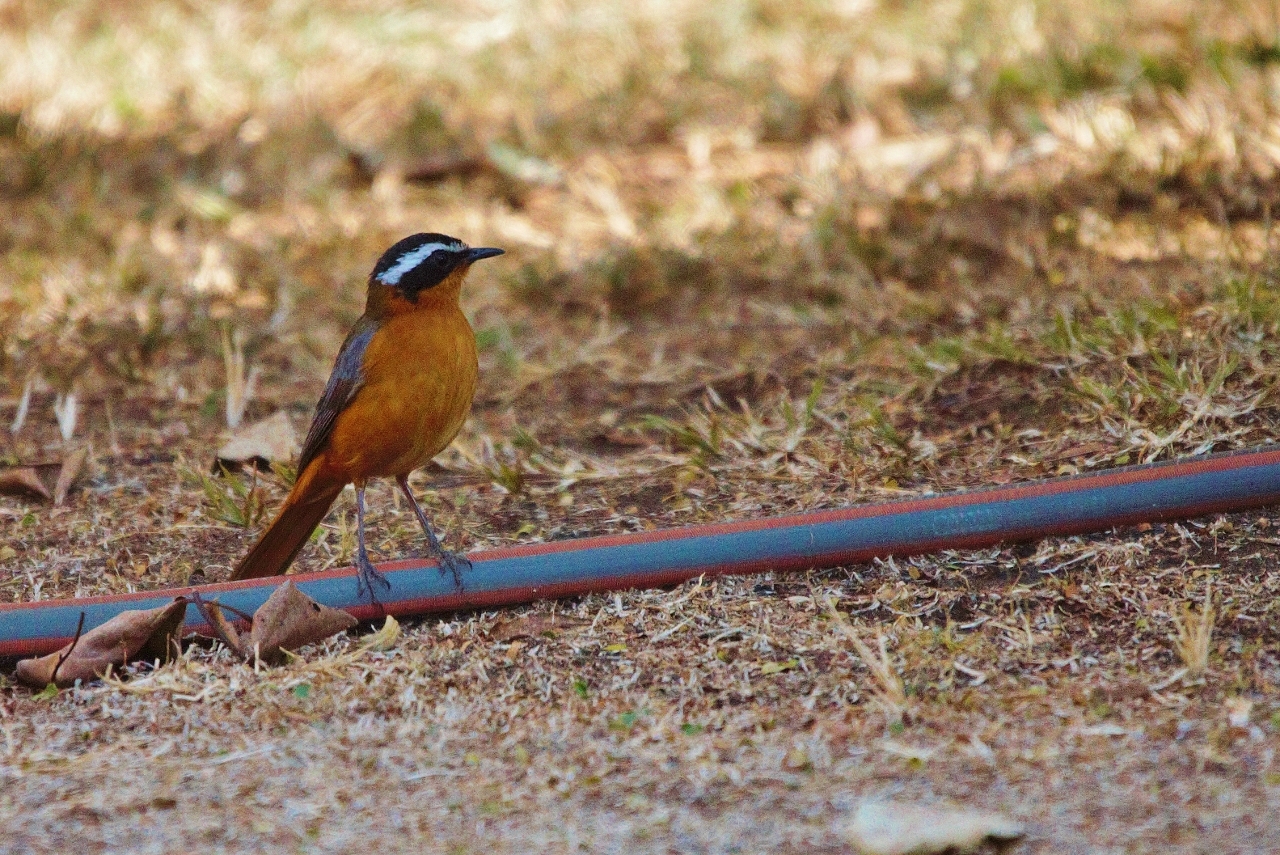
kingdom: Animalia
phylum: Chordata
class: Aves
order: Passeriformes
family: Muscicapidae
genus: Cossypha
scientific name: Cossypha heuglini
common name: White-browed robin-chat
